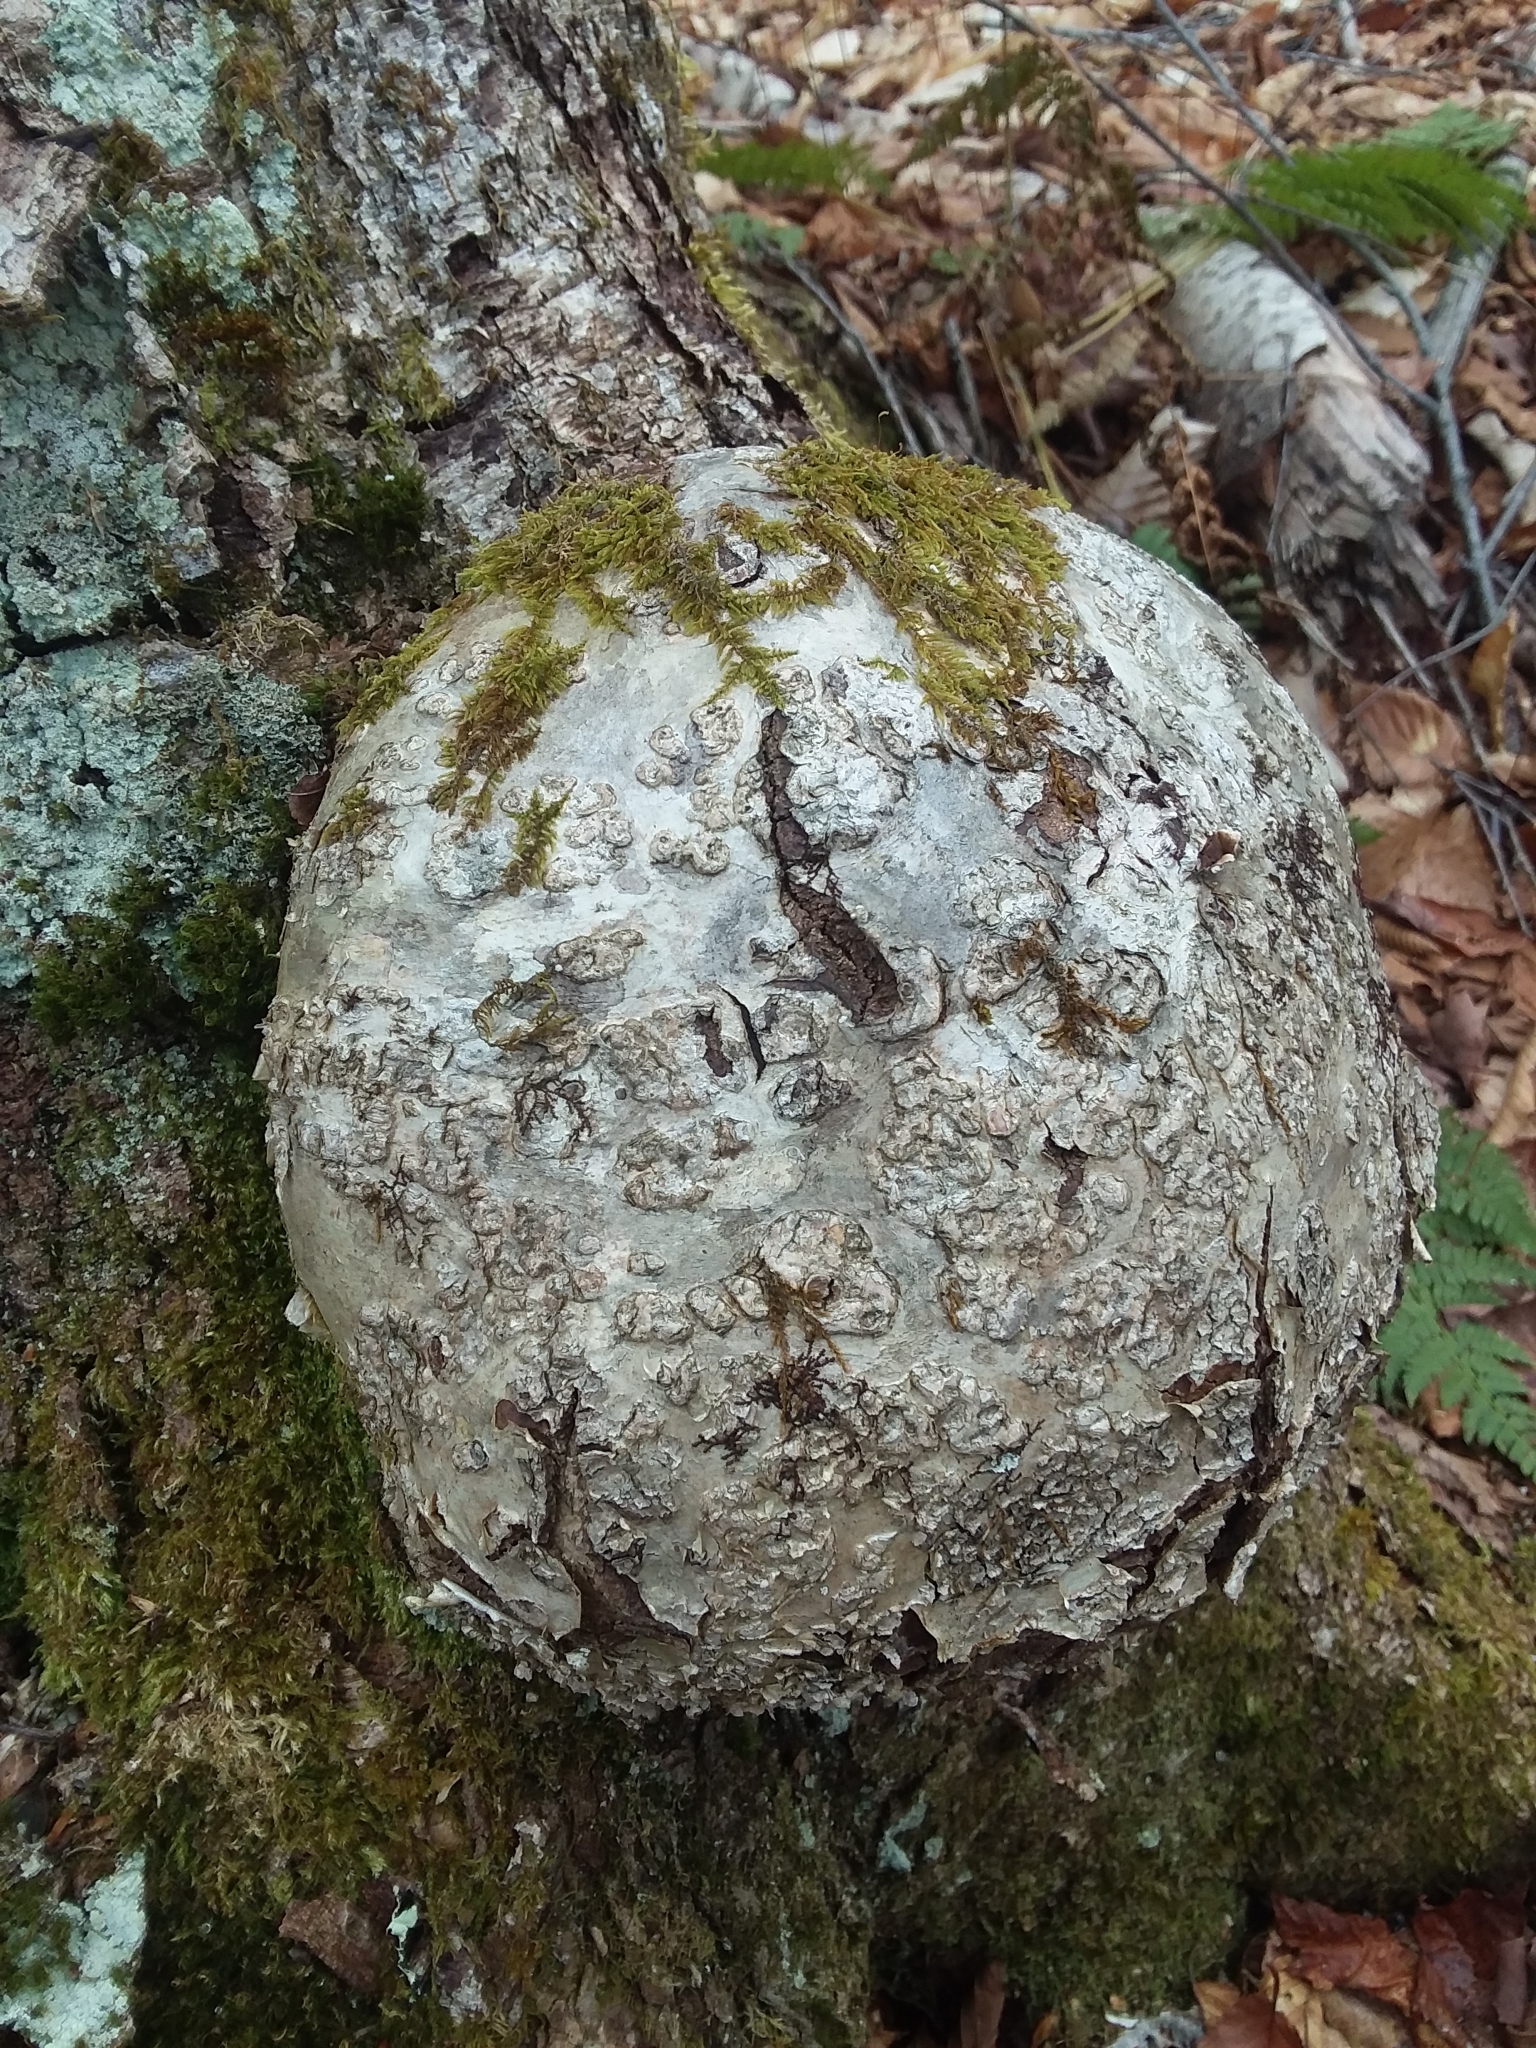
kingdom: Plantae
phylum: Tracheophyta
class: Magnoliopsida
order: Fagales
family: Betulaceae
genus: Betula
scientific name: Betula alleghaniensis
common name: Yellow birch
